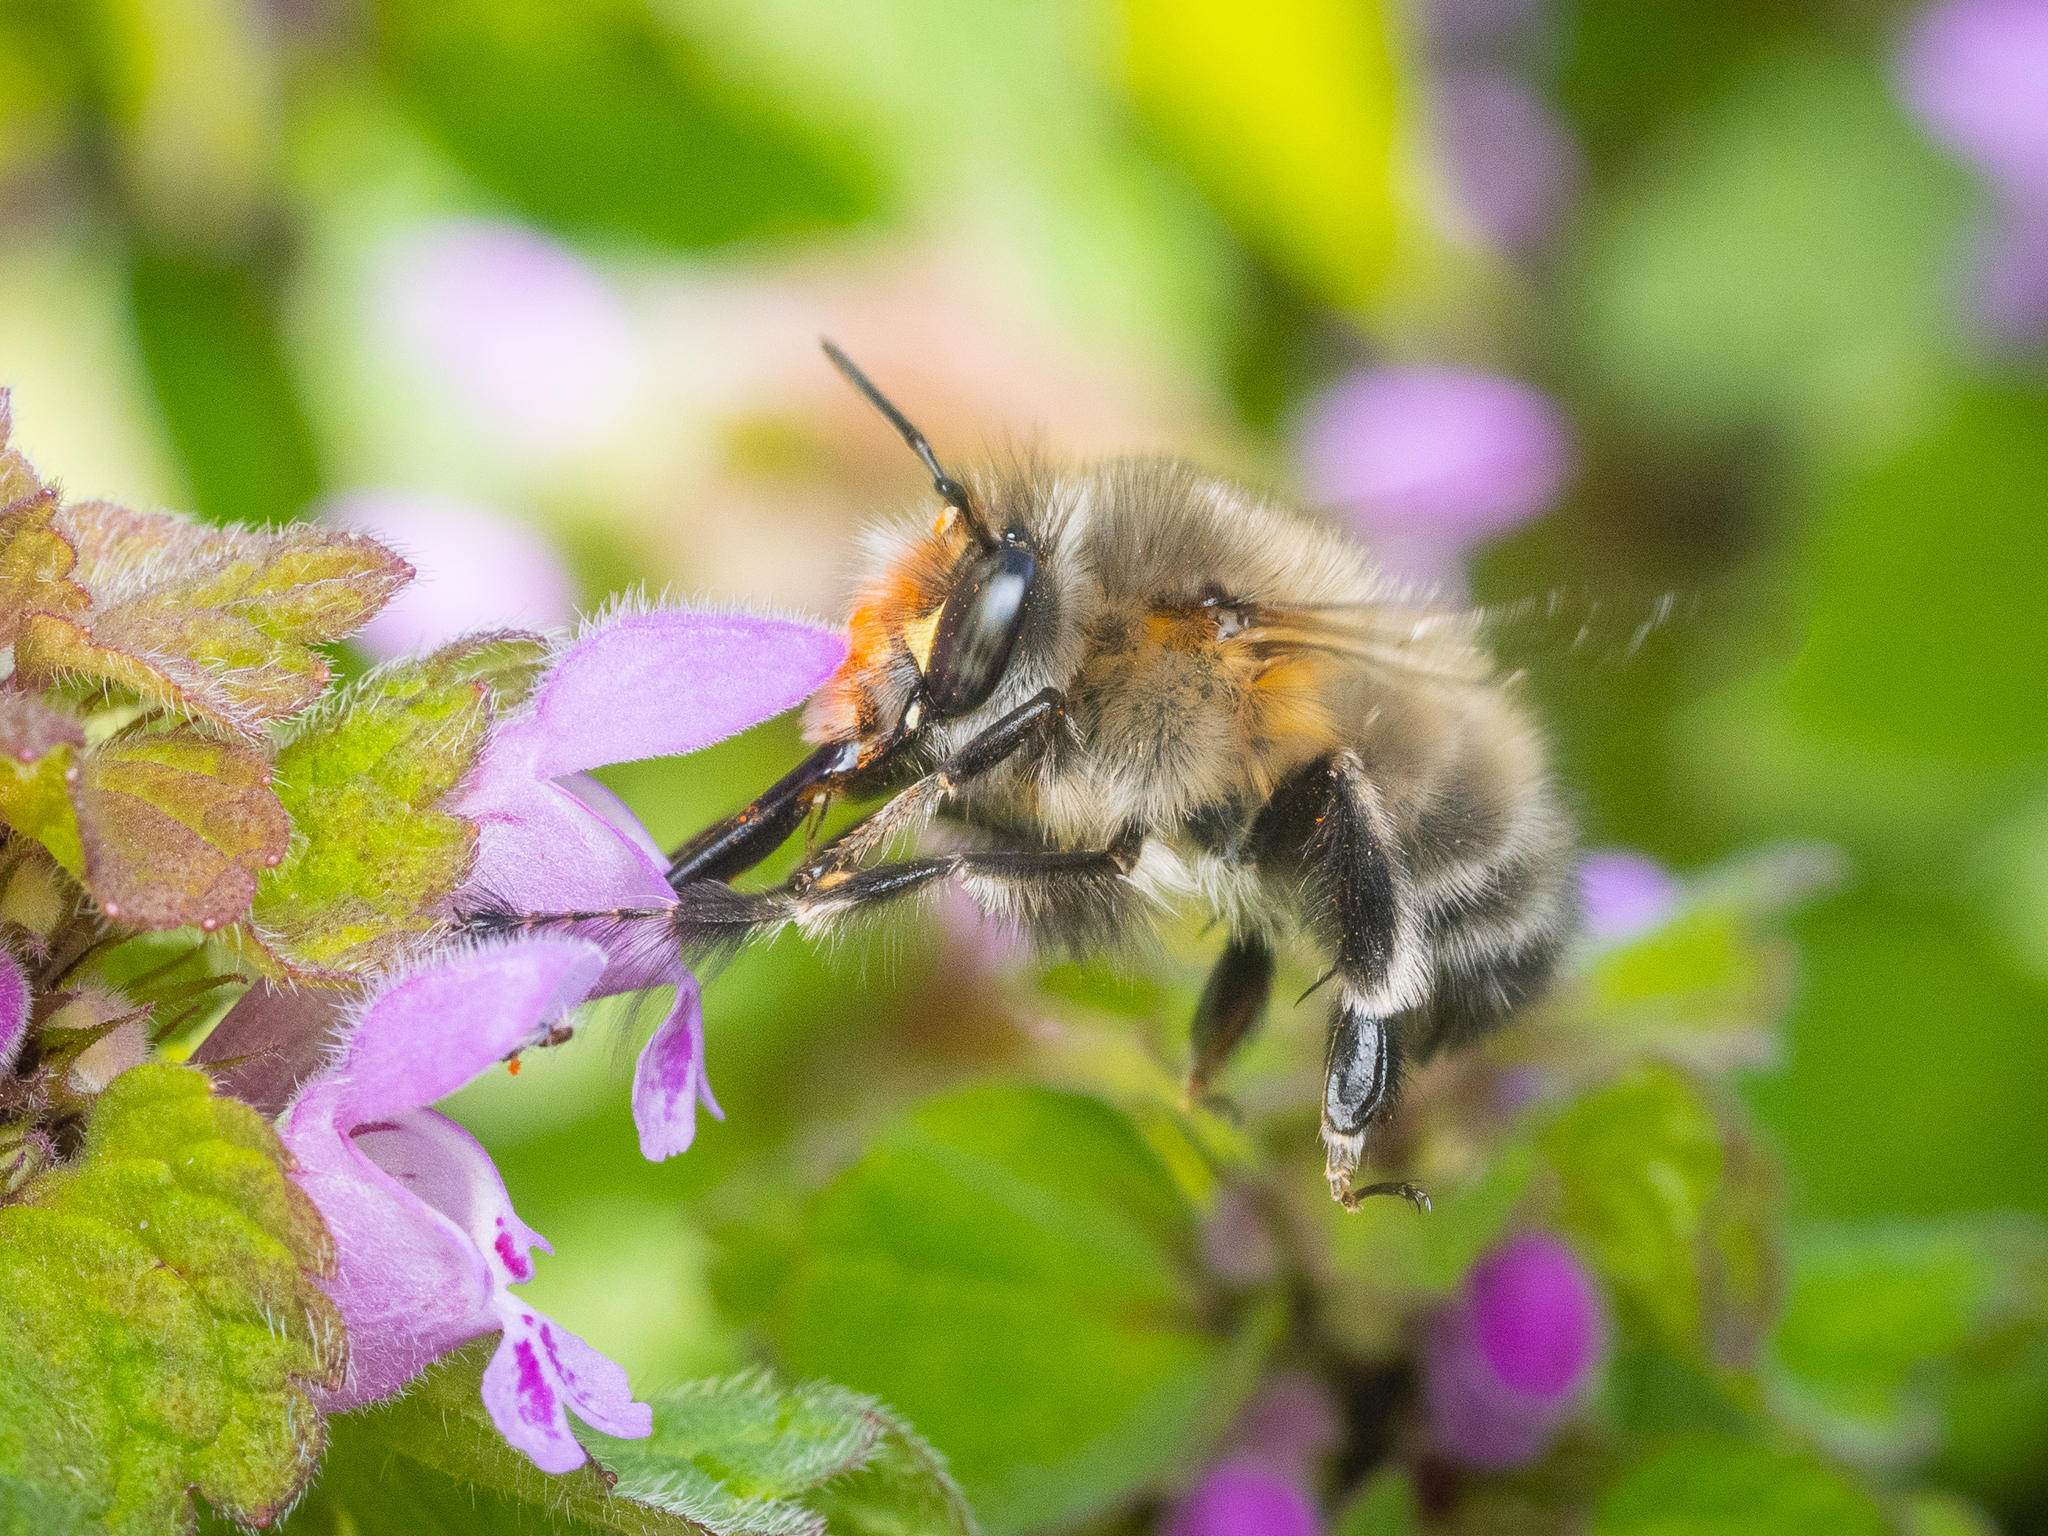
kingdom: Animalia
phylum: Arthropoda
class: Insecta
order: Hymenoptera
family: Apidae
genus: Anthophora
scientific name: Anthophora plumipes
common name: Hairy-footed flower bee
